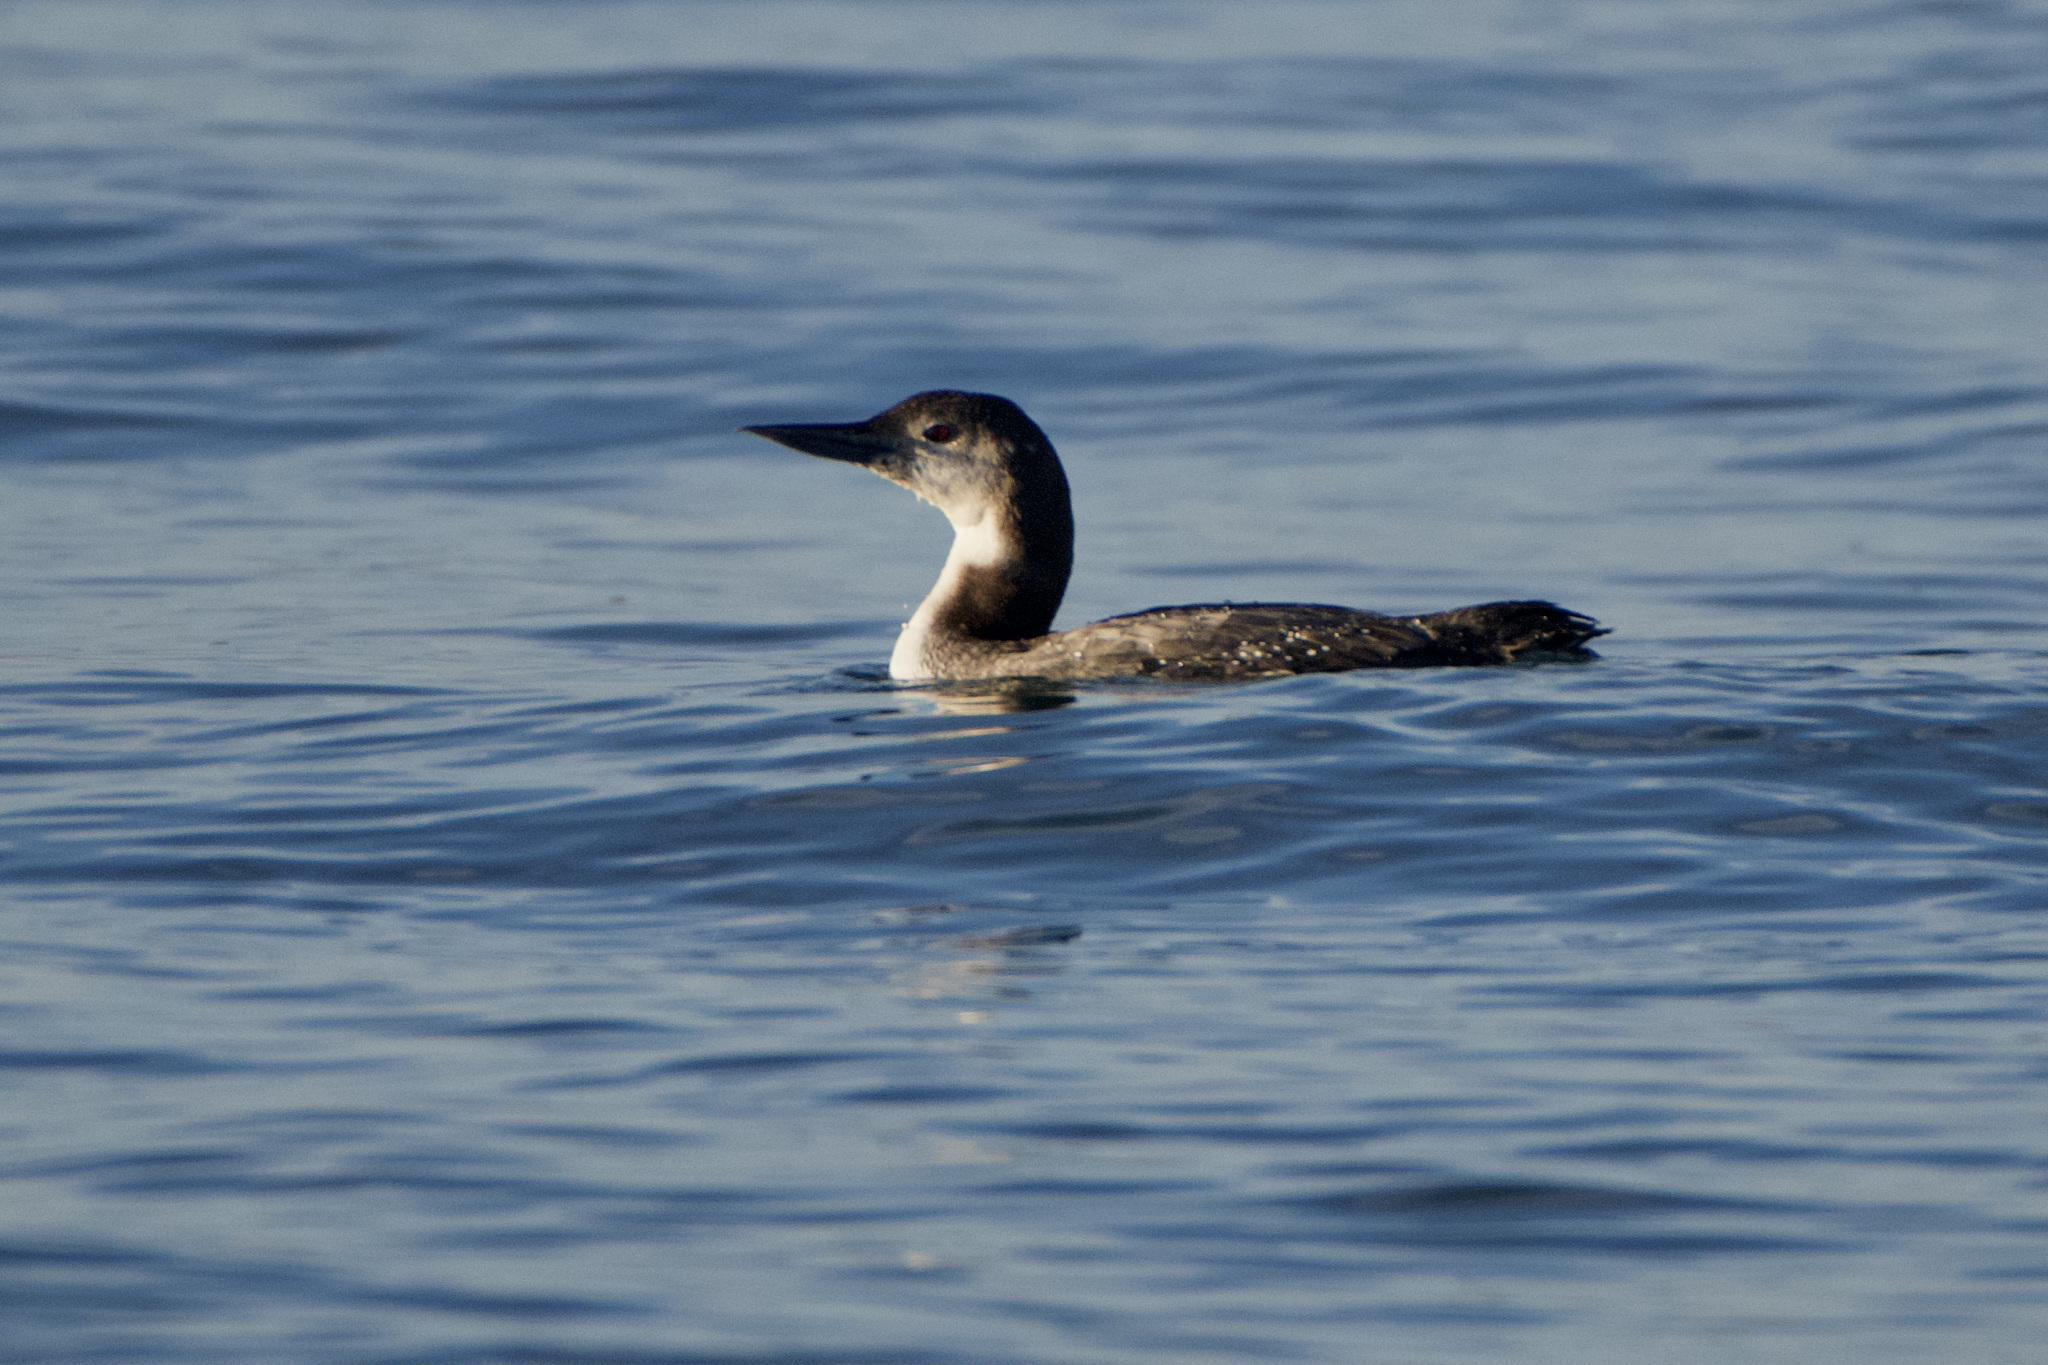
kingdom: Animalia
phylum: Chordata
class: Aves
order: Gaviiformes
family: Gaviidae
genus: Gavia
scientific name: Gavia immer
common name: Common loon
